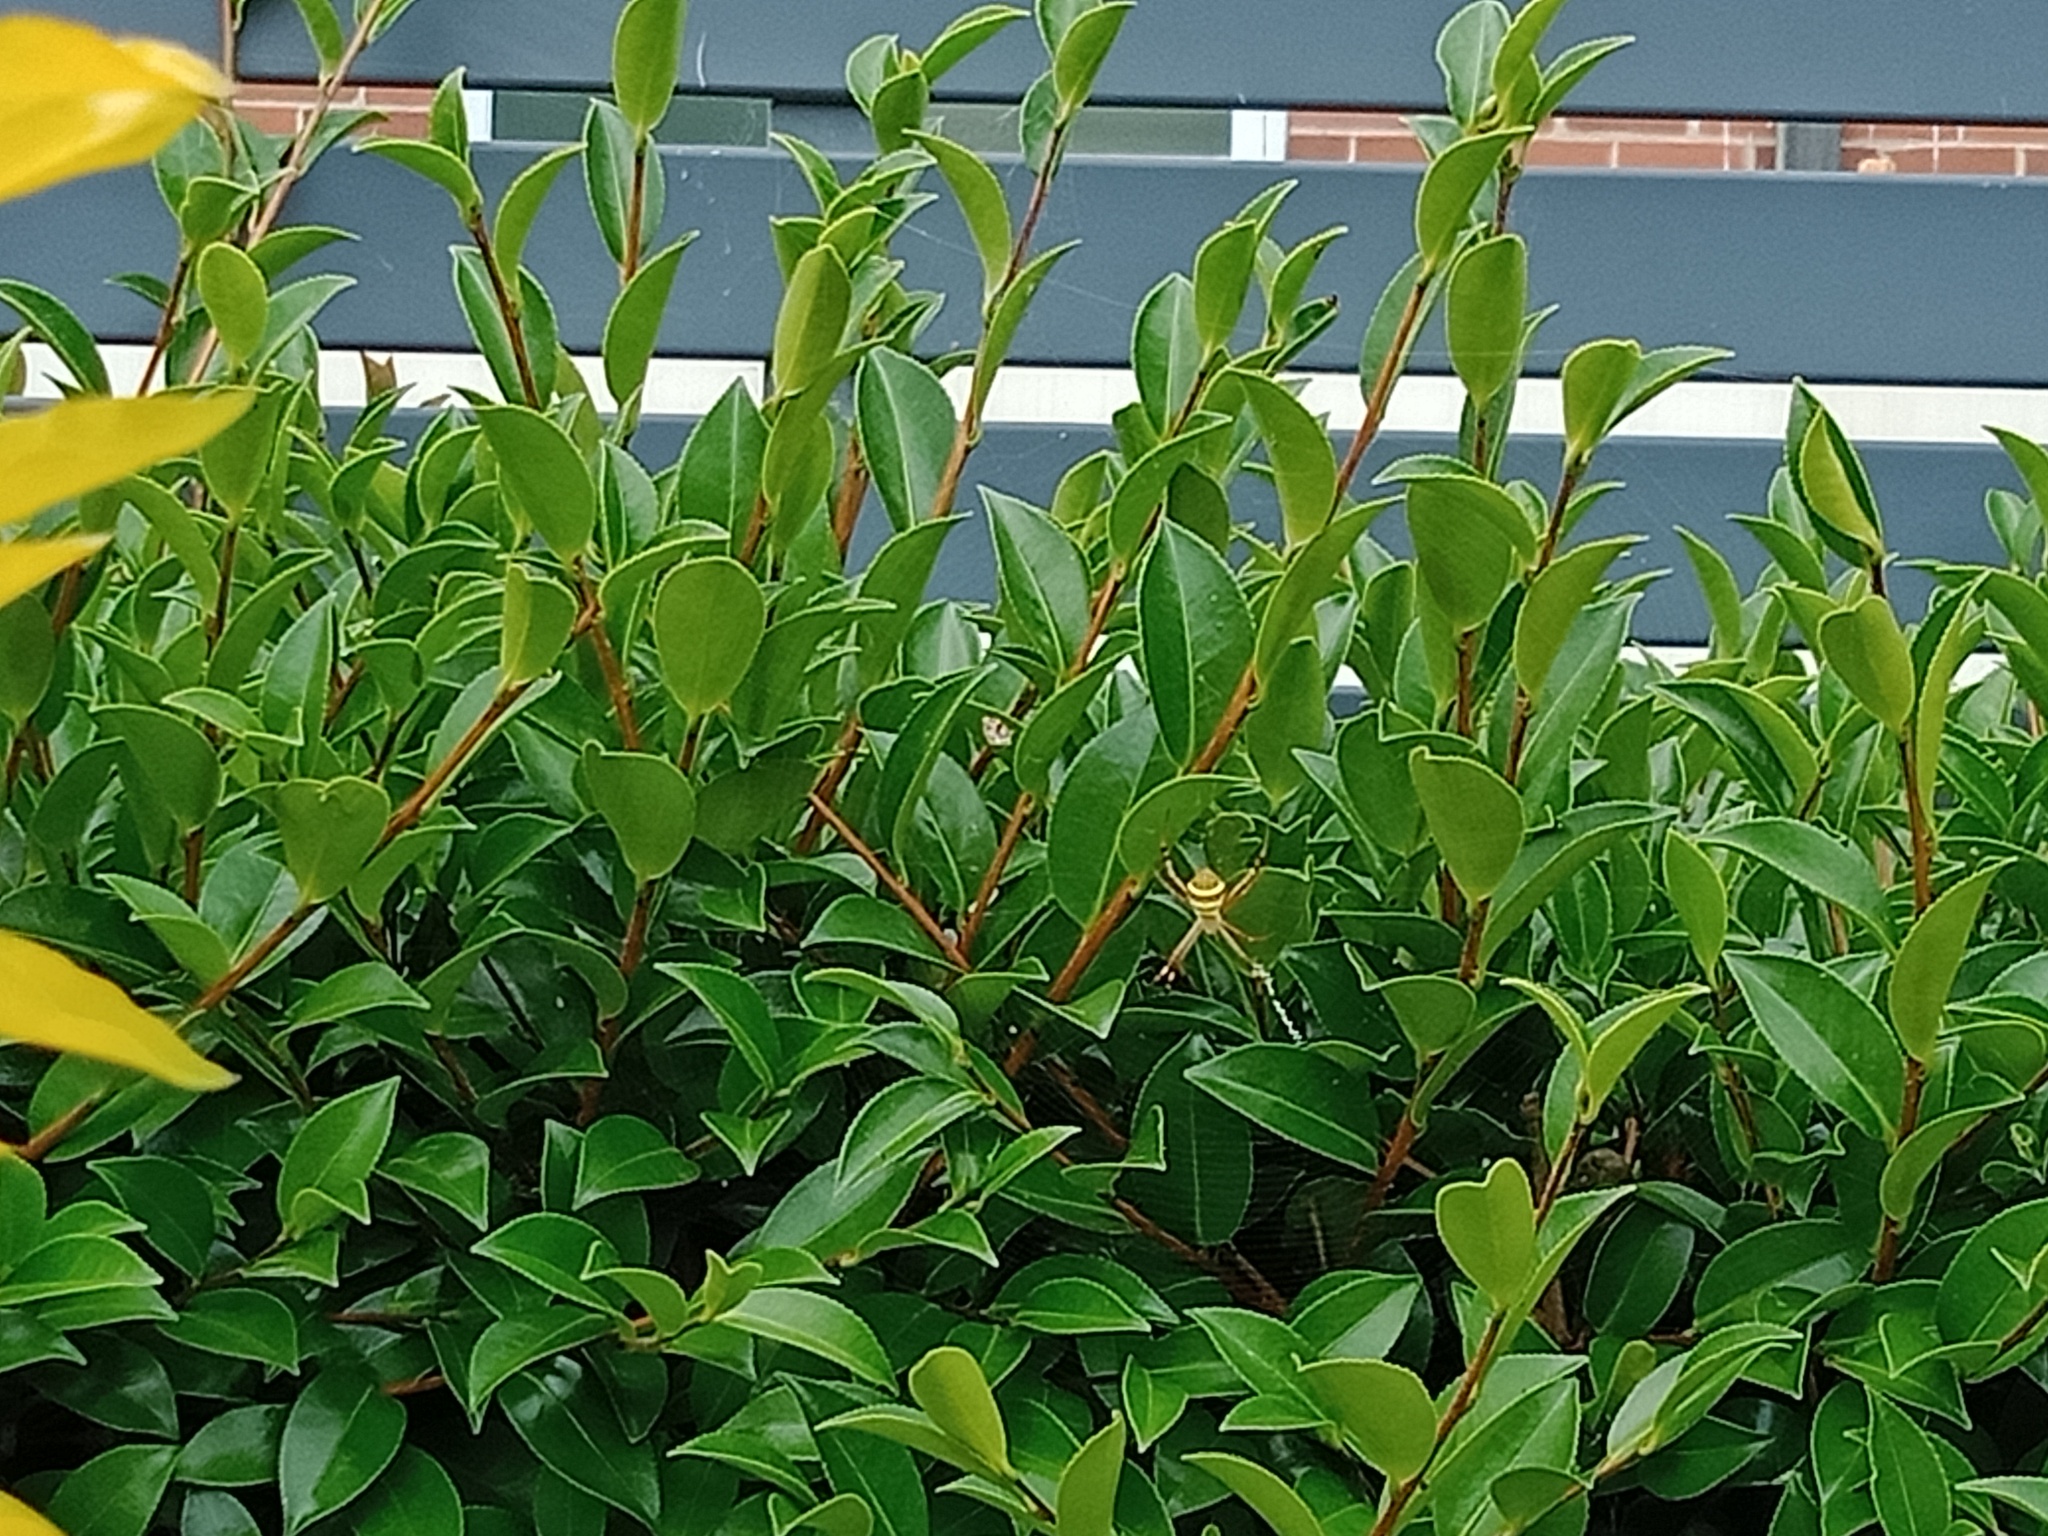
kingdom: Animalia
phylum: Arthropoda
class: Arachnida
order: Araneae
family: Araneidae
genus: Argiope
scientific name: Argiope keyserlingi
